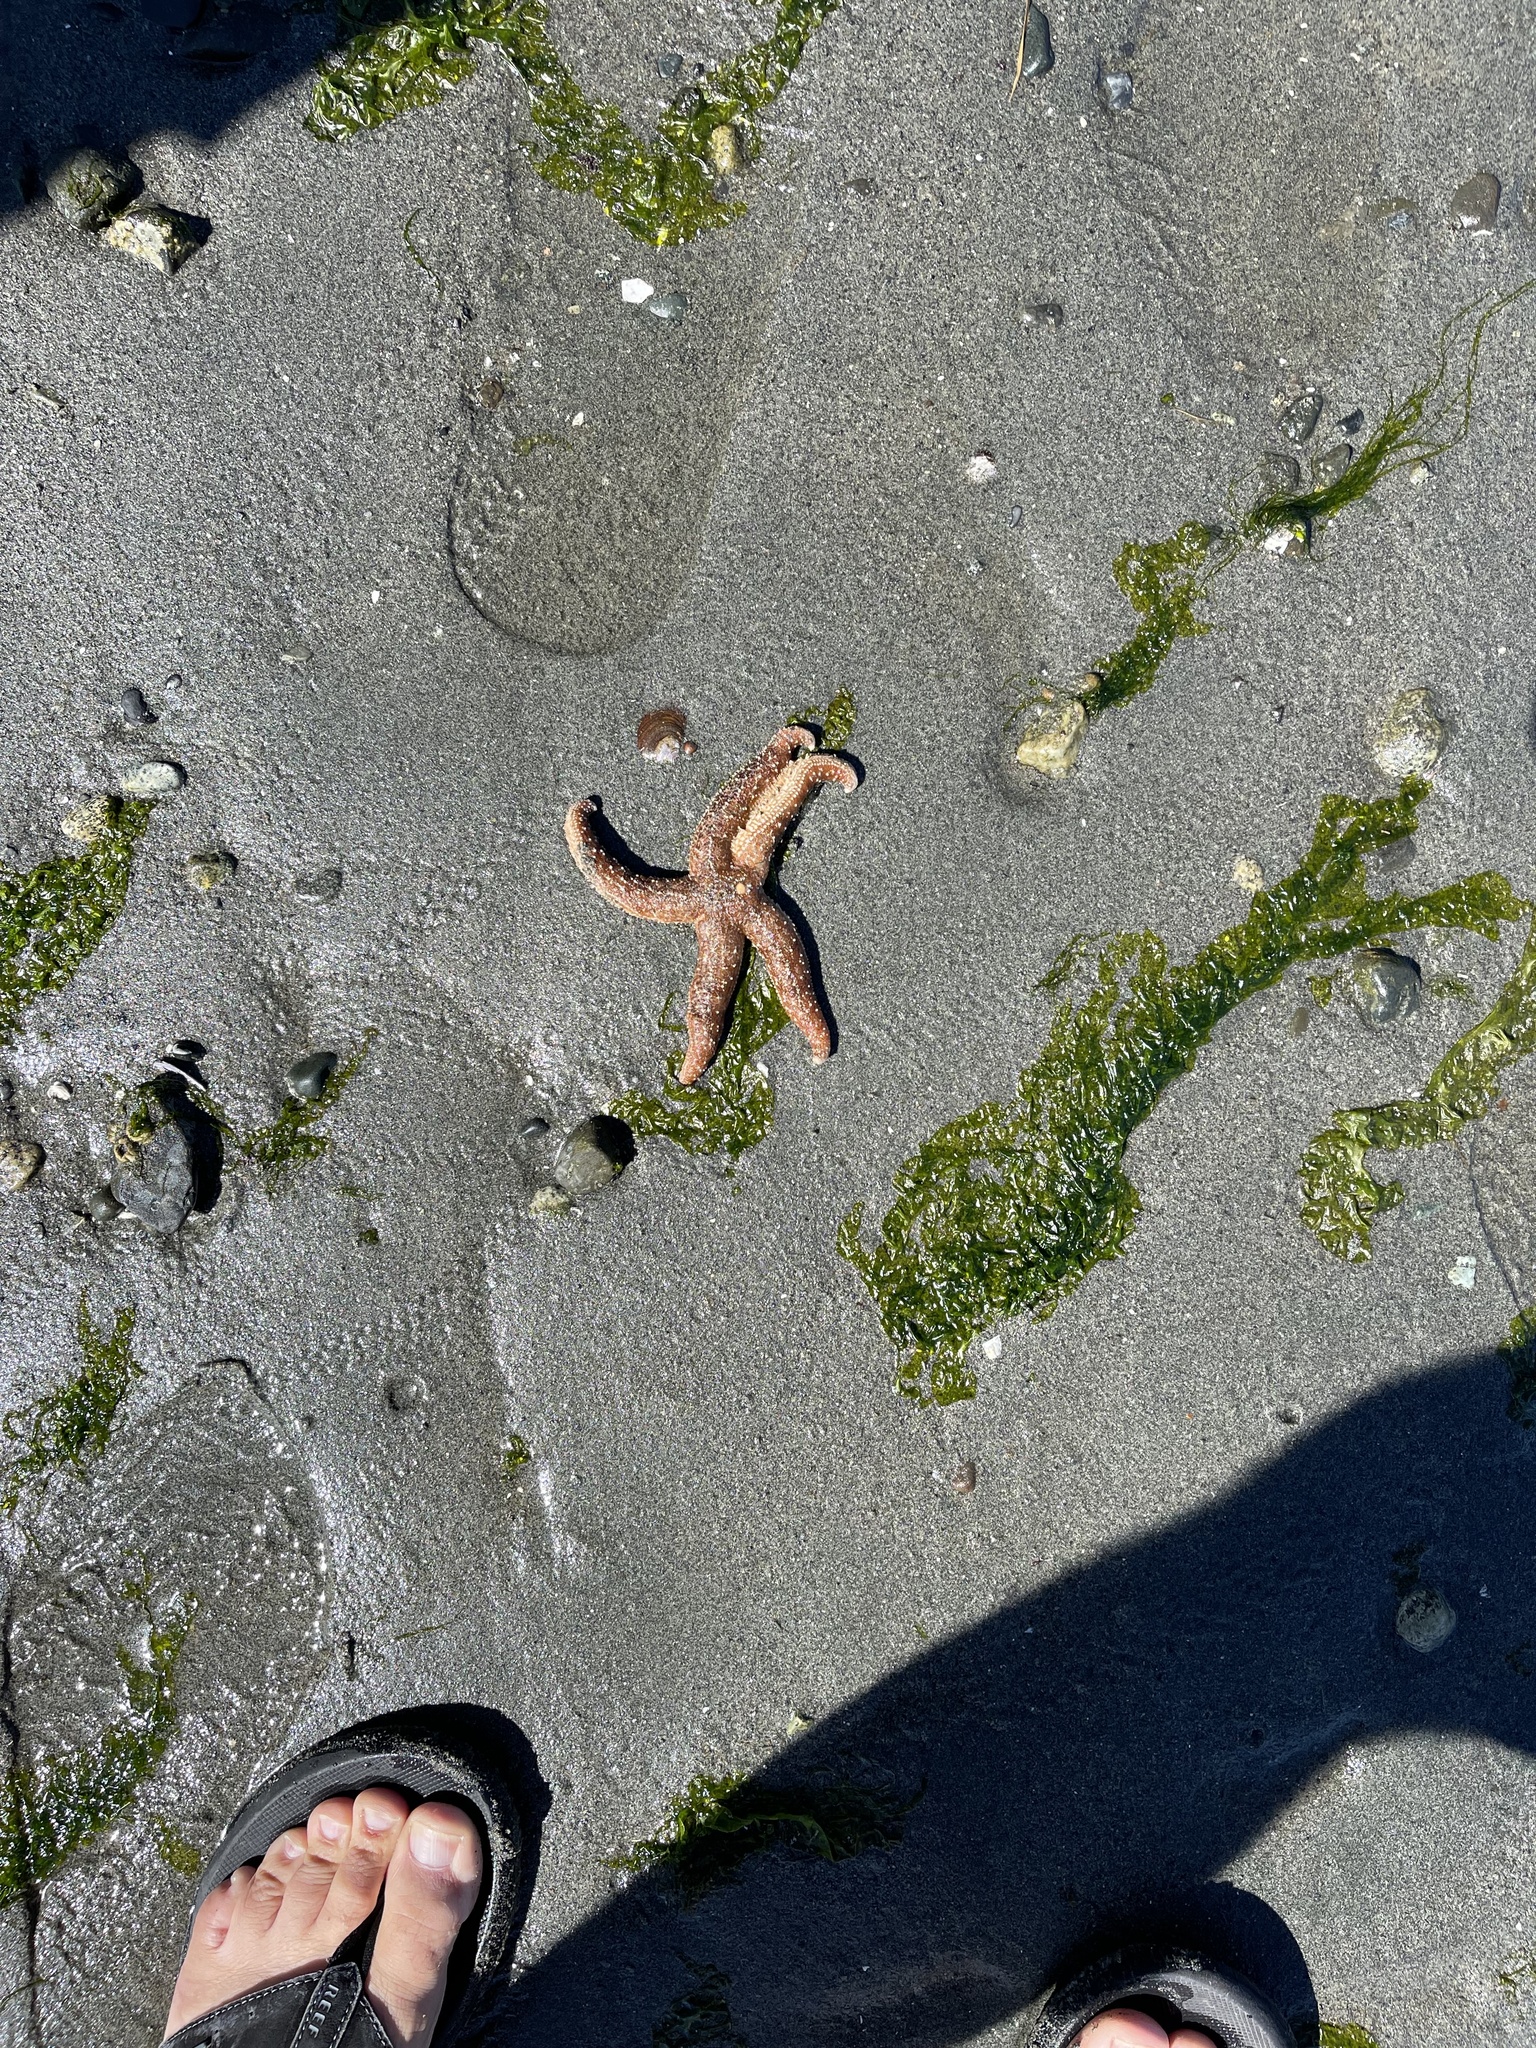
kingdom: Animalia
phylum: Echinodermata
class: Asteroidea
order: Forcipulatida
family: Asteriidae
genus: Evasterias
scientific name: Evasterias troschelii
